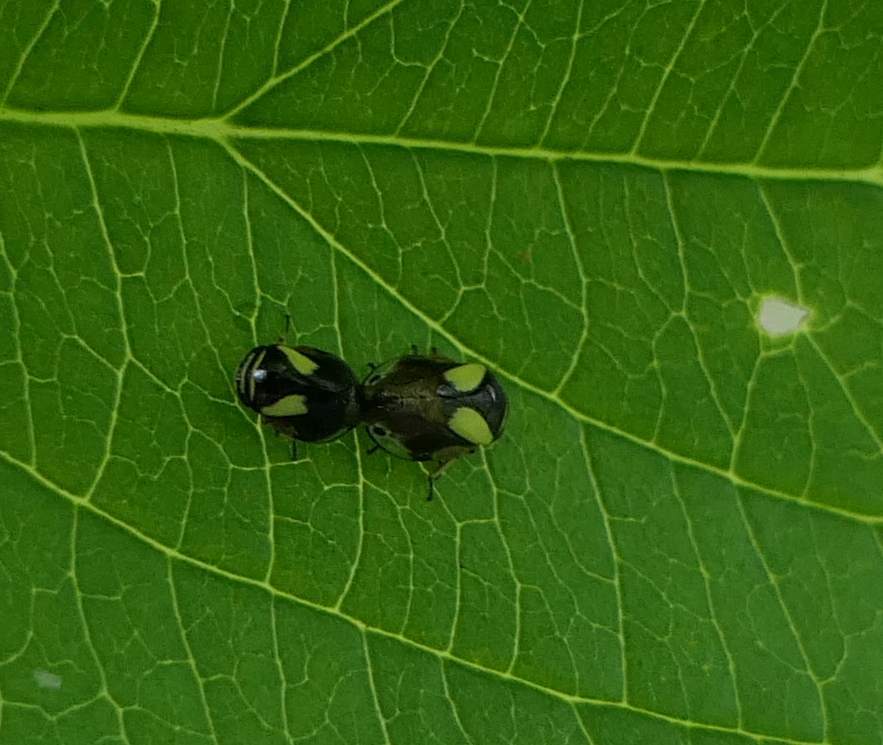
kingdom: Animalia
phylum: Arthropoda
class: Insecta
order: Hemiptera
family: Clastopteridae
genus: Clastoptera
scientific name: Clastoptera proteus
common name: Dogwood spittlebug
